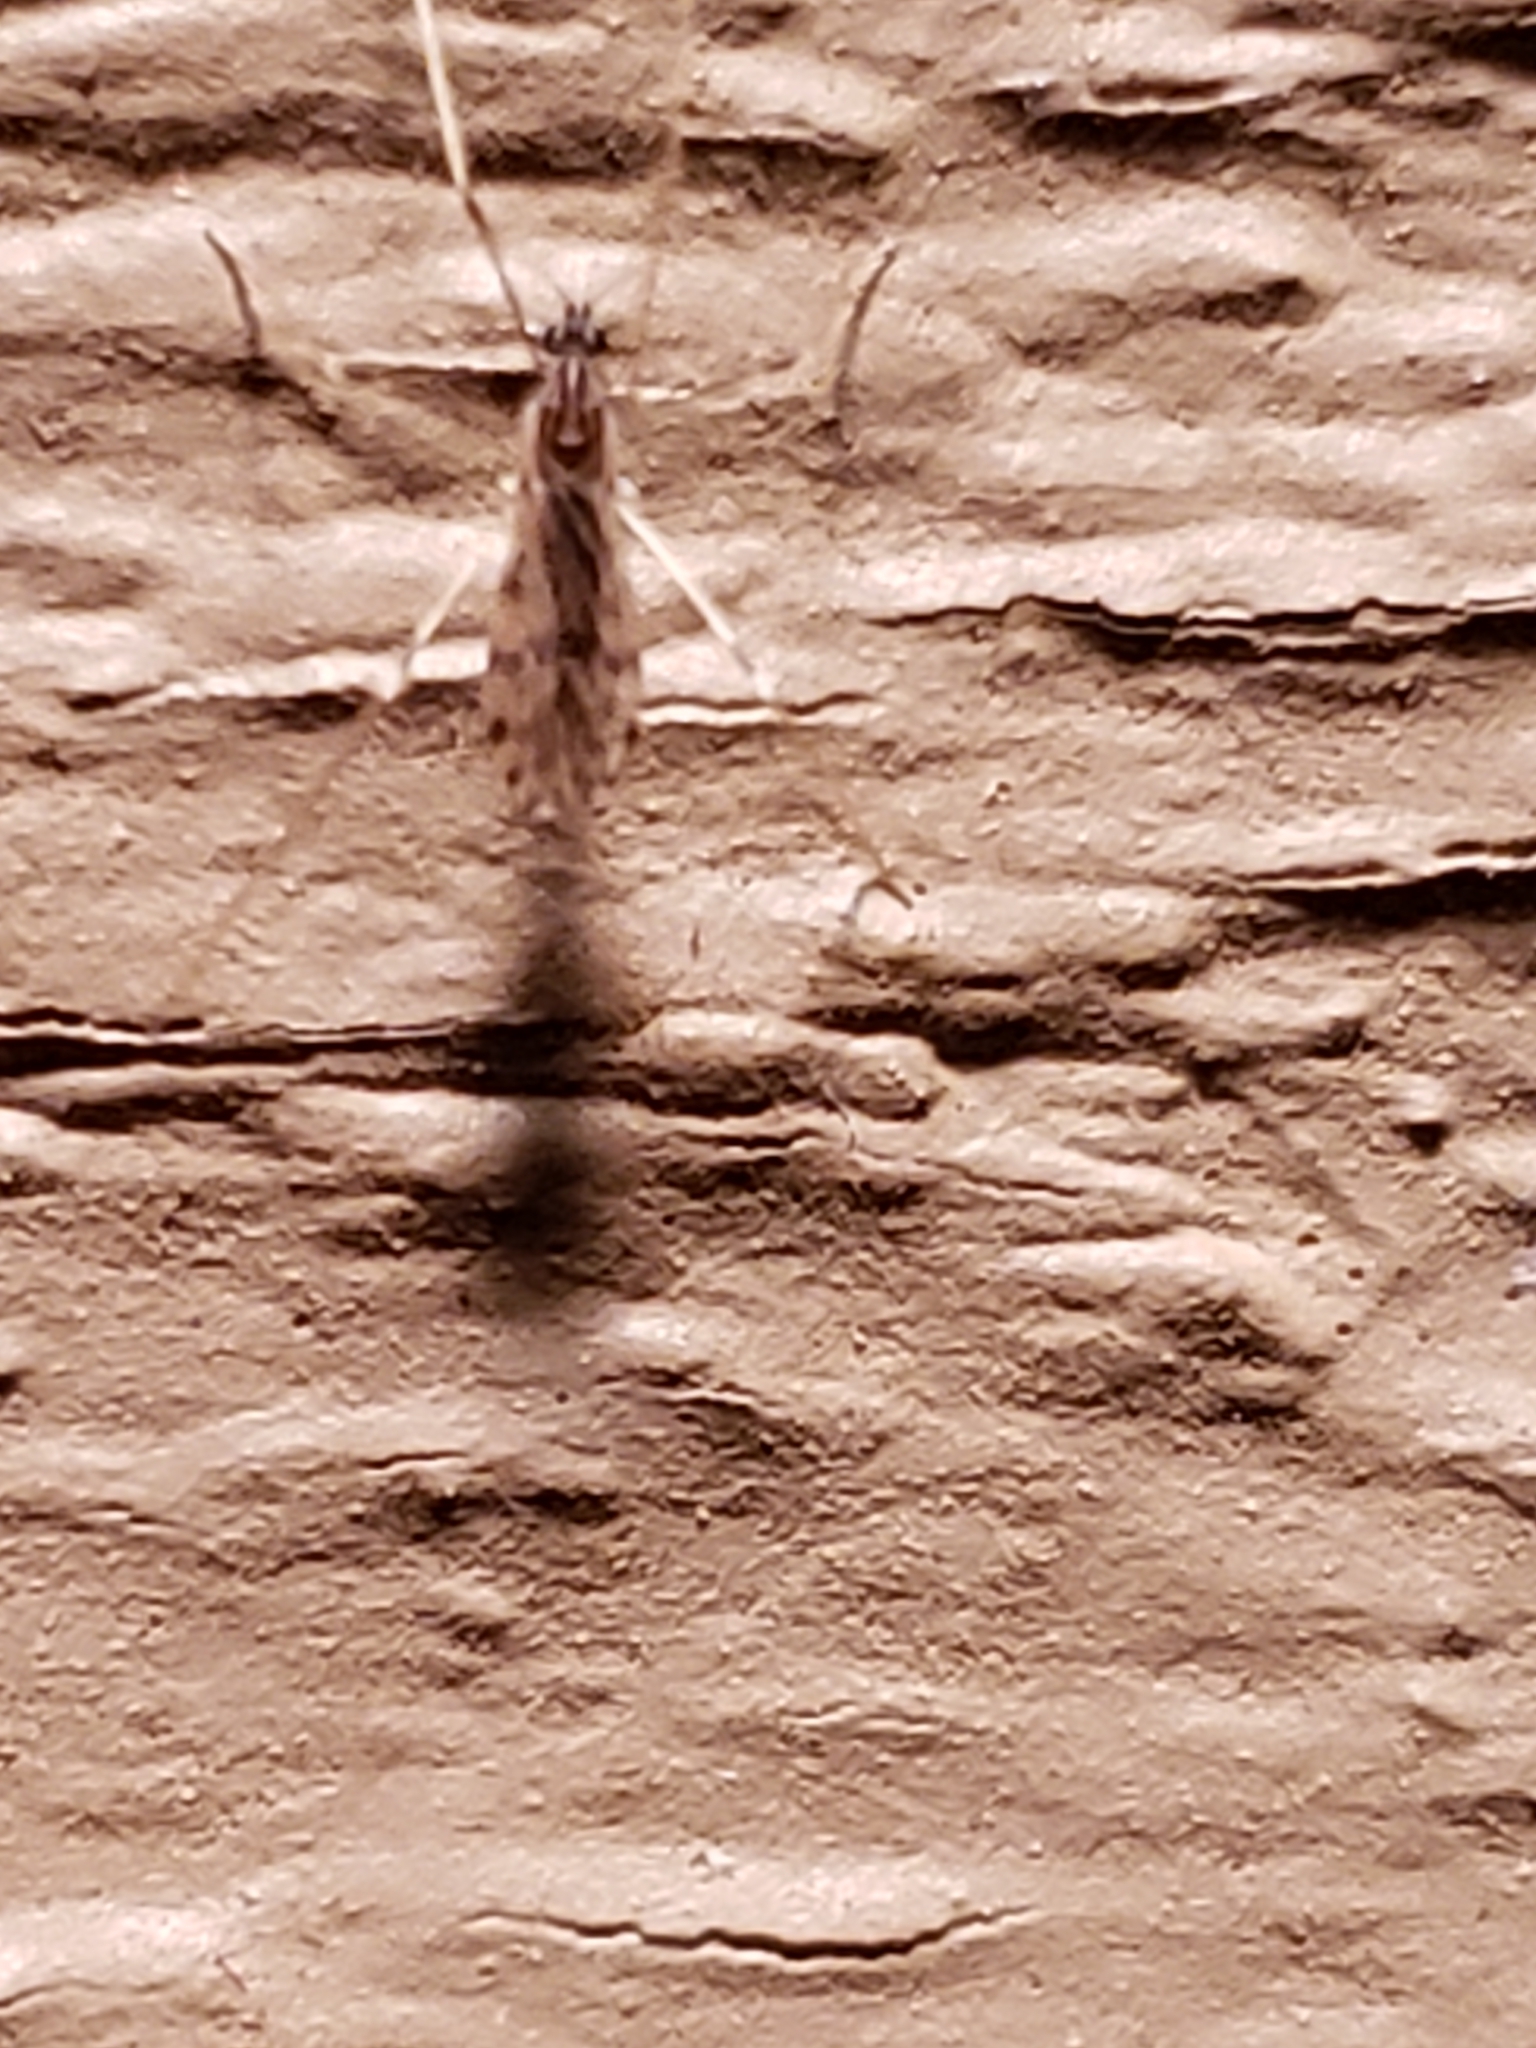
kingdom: Animalia
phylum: Arthropoda
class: Insecta
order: Diptera
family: Limoniidae
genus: Erioptera
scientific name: Erioptera parva
